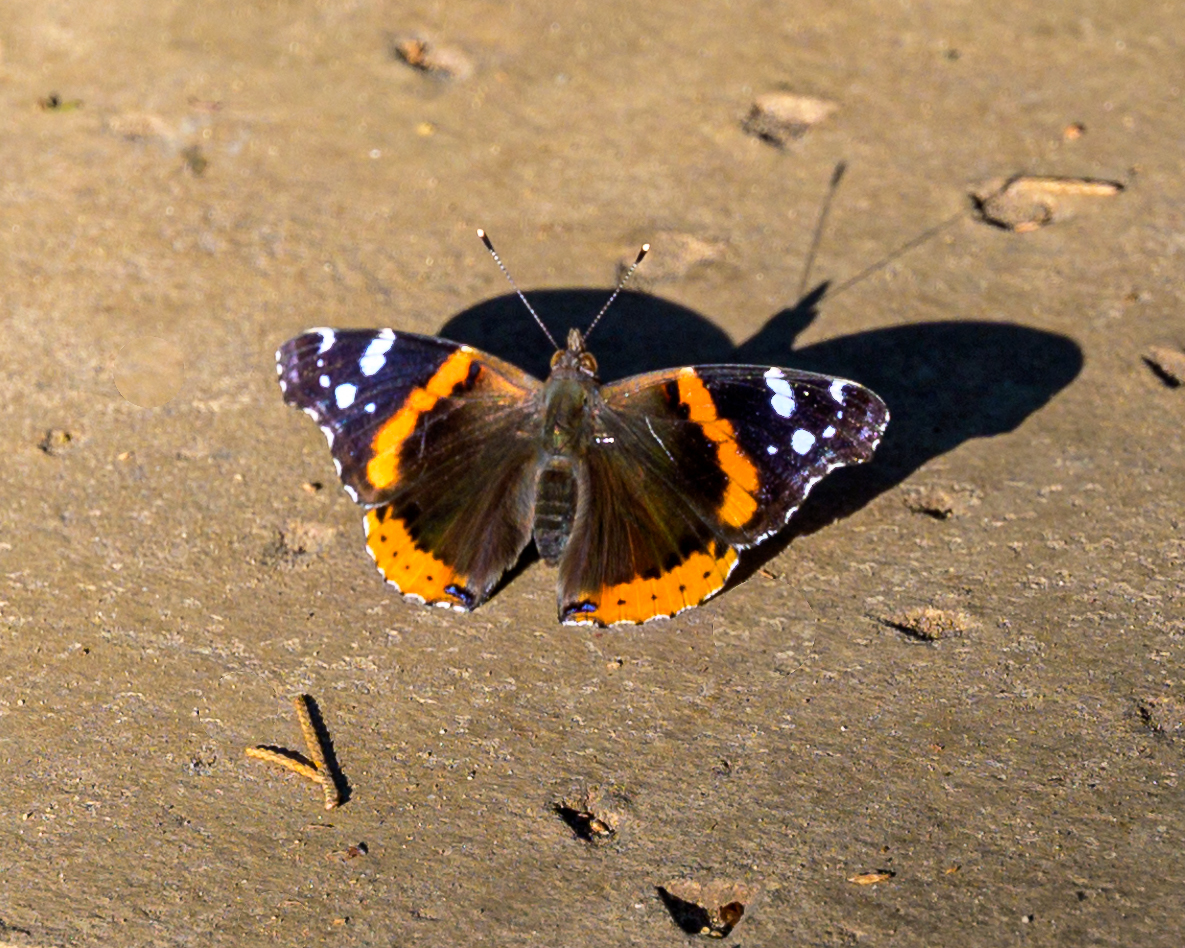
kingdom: Animalia
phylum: Arthropoda
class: Insecta
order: Lepidoptera
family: Nymphalidae
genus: Vanessa
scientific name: Vanessa atalanta
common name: Red admiral
